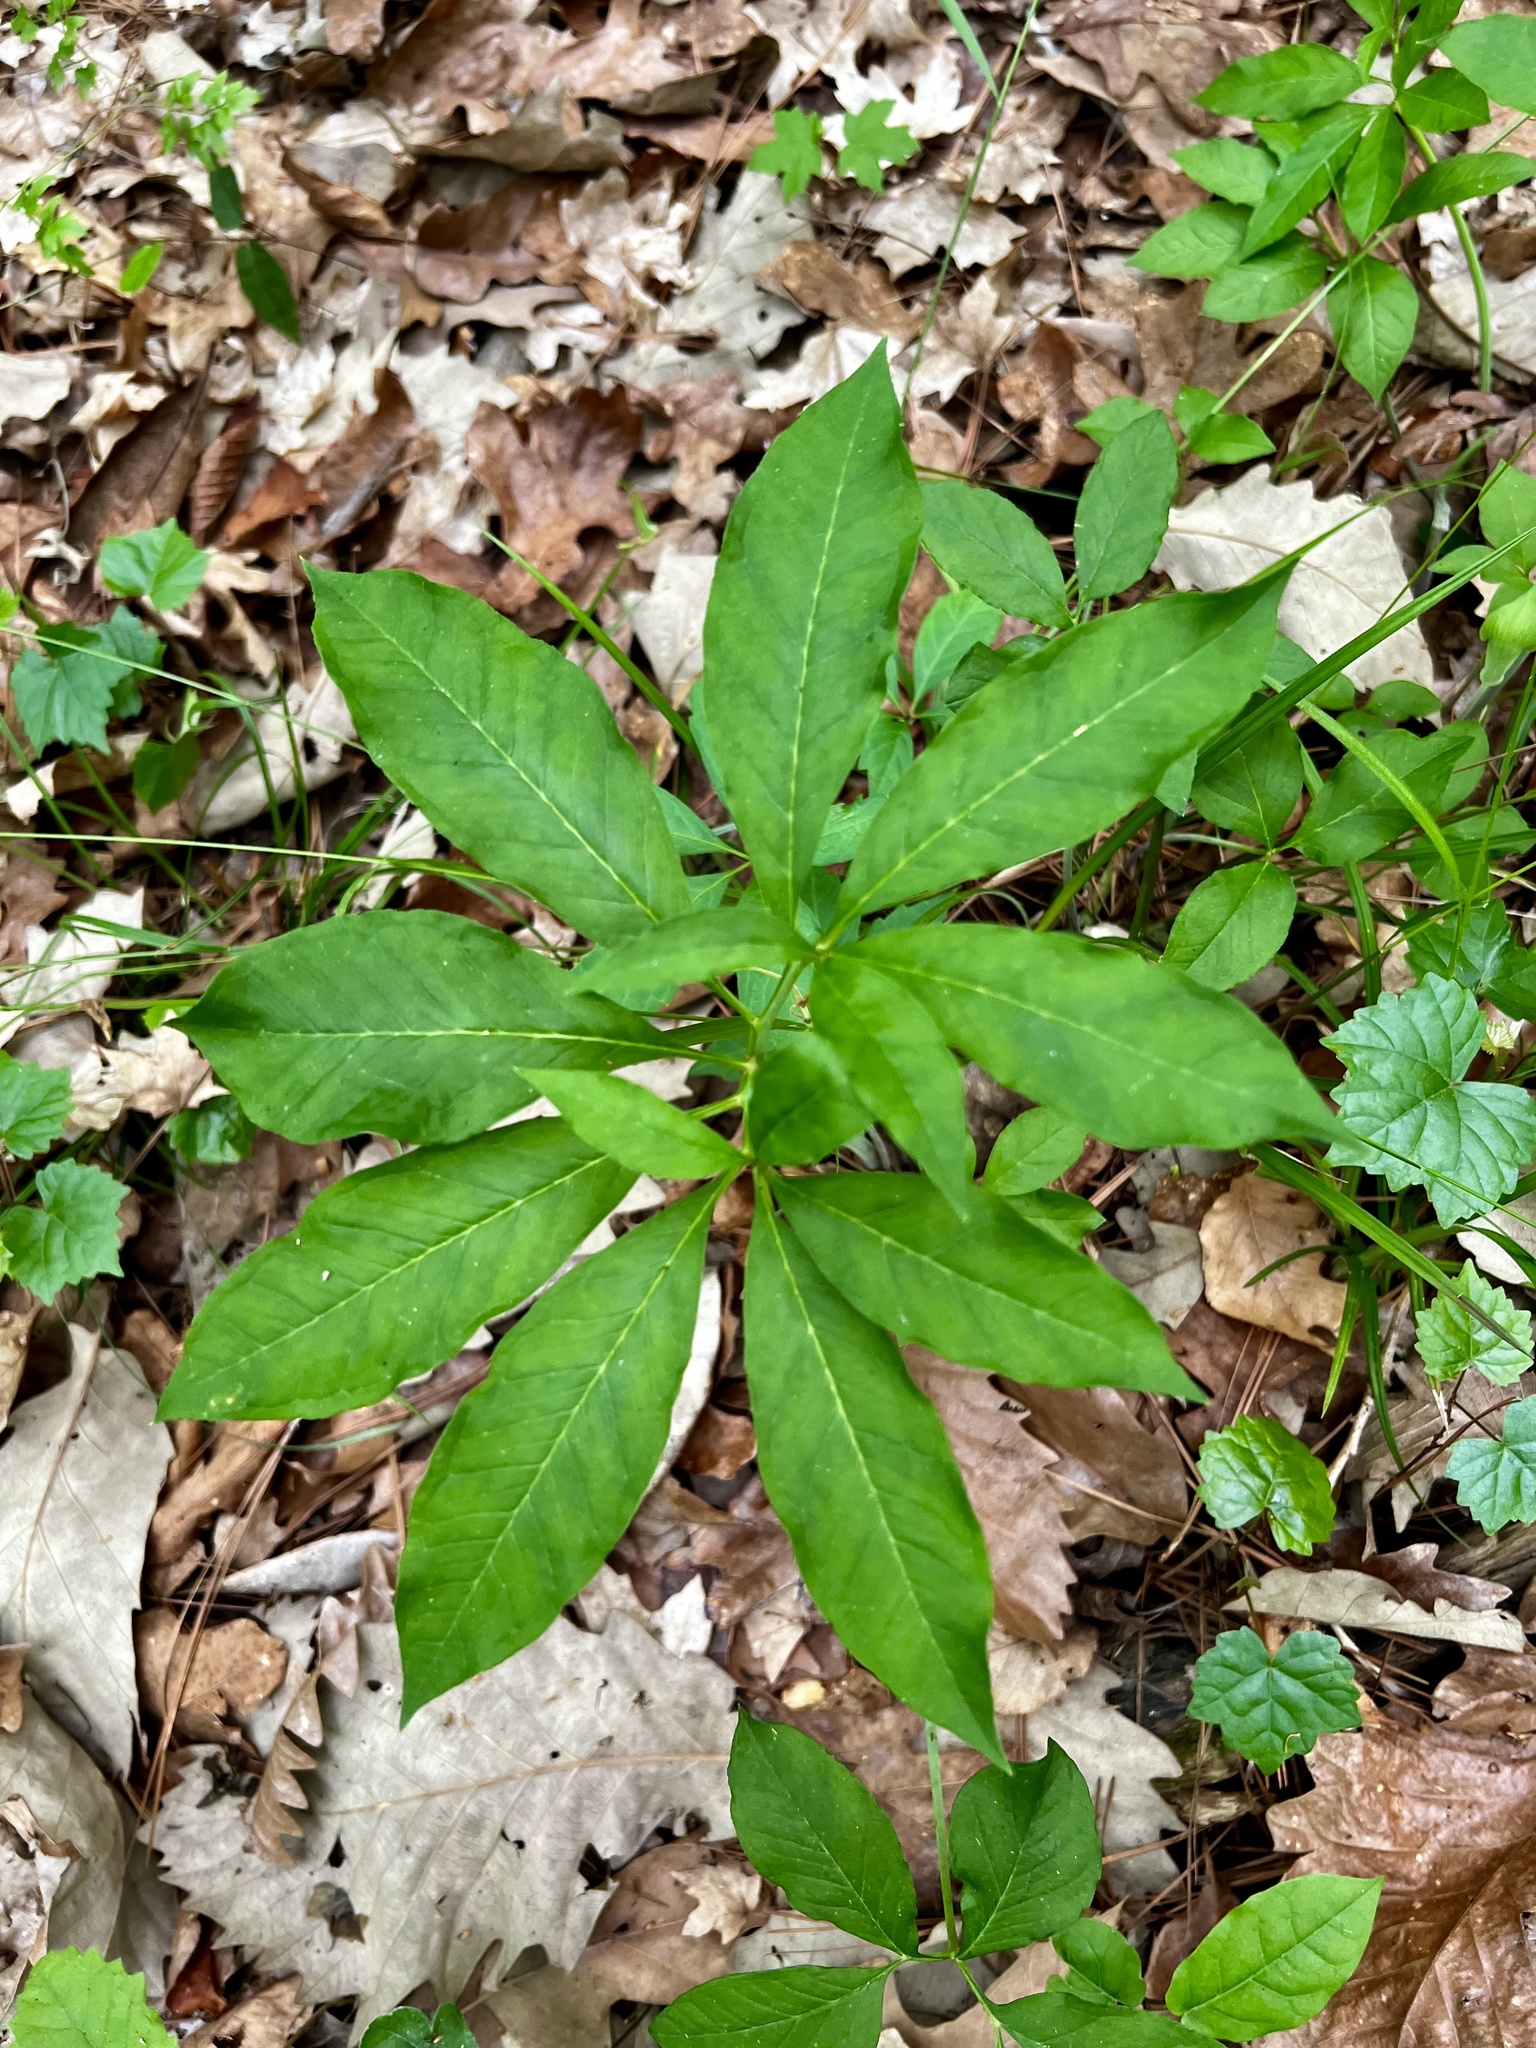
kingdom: Plantae
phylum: Tracheophyta
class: Liliopsida
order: Alismatales
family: Araceae
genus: Arisaema
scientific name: Arisaema dracontium
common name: Dragon-arum
